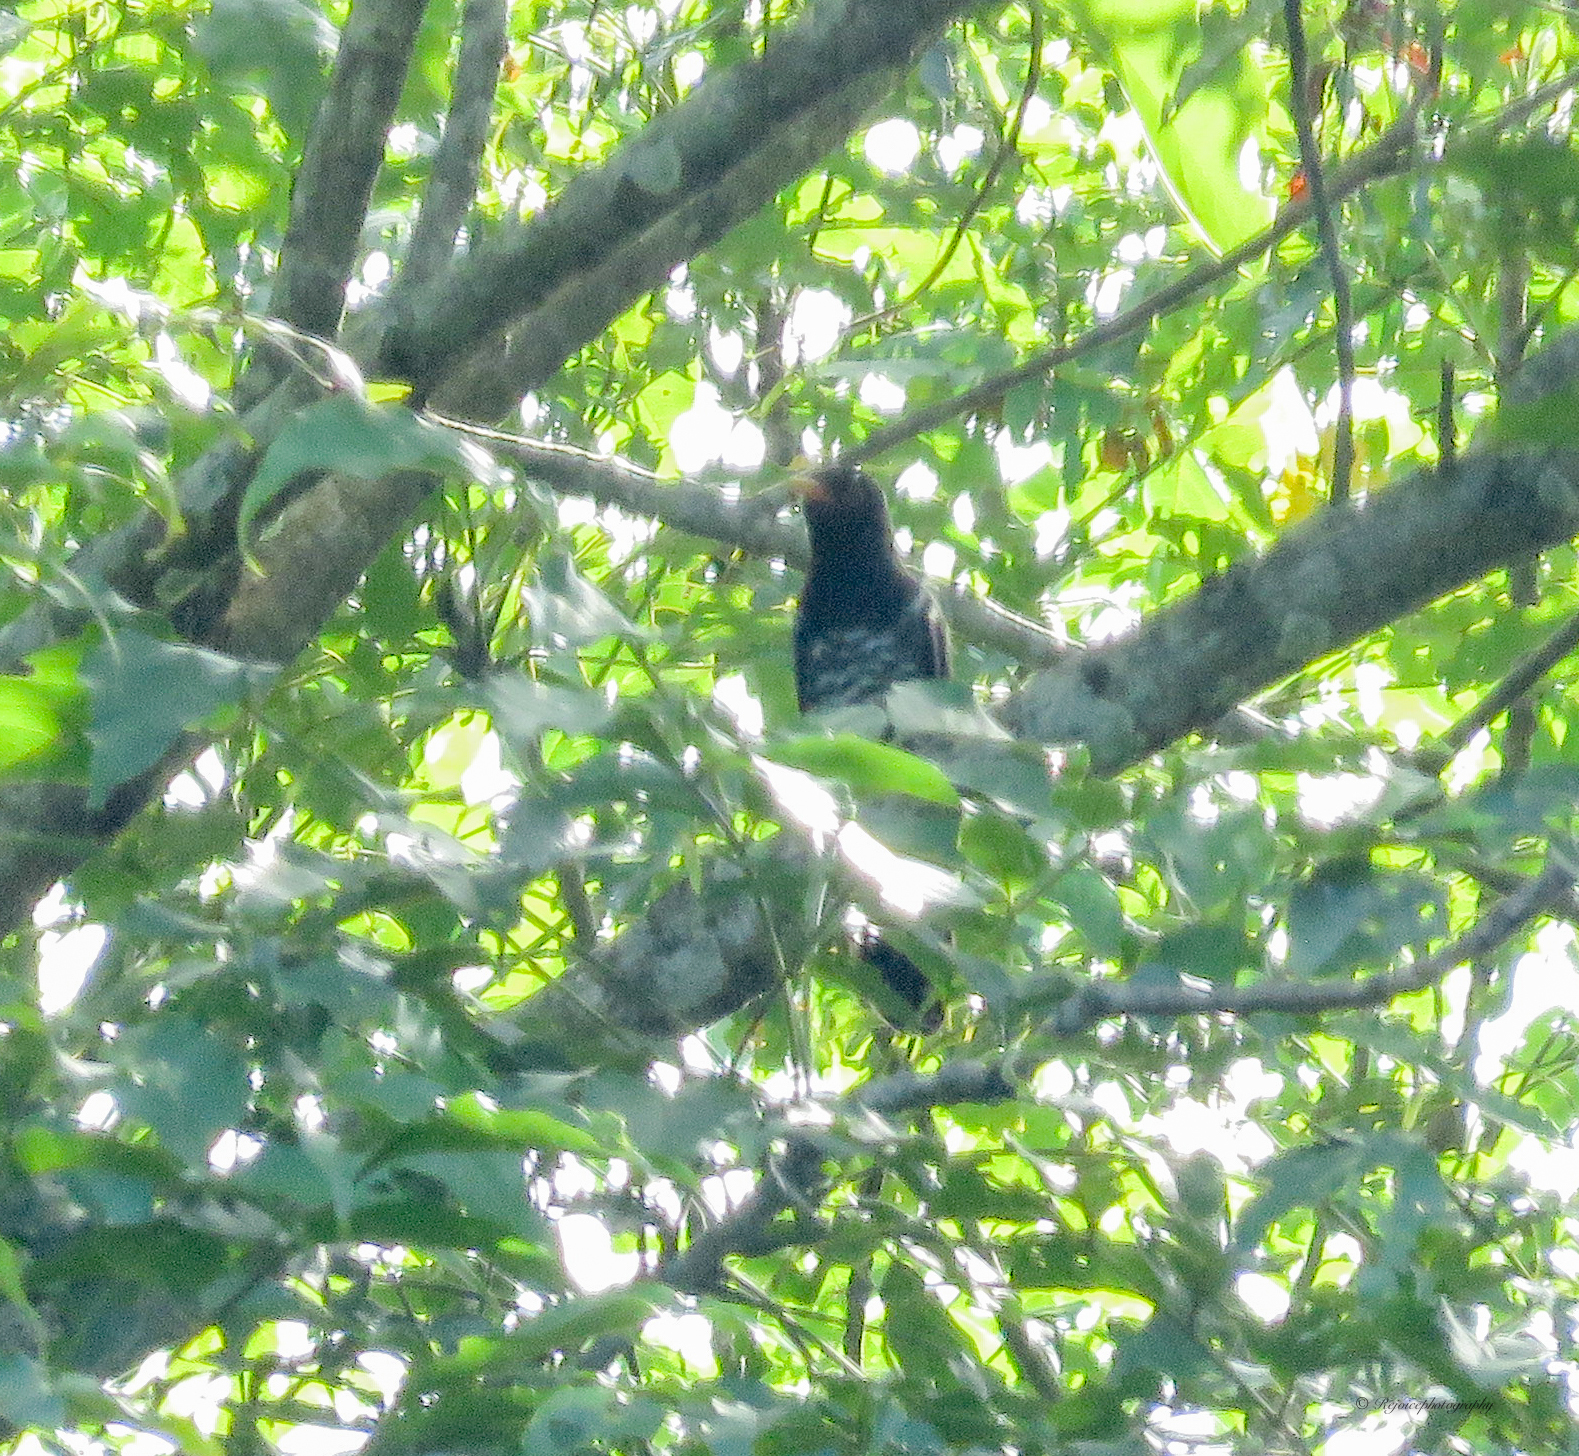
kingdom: Animalia
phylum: Chordata
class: Aves
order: Cuculiformes
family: Cuculidae
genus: Chrysococcyx
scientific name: Chrysococcyx xanthorhynchus
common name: Violet cuckoo
